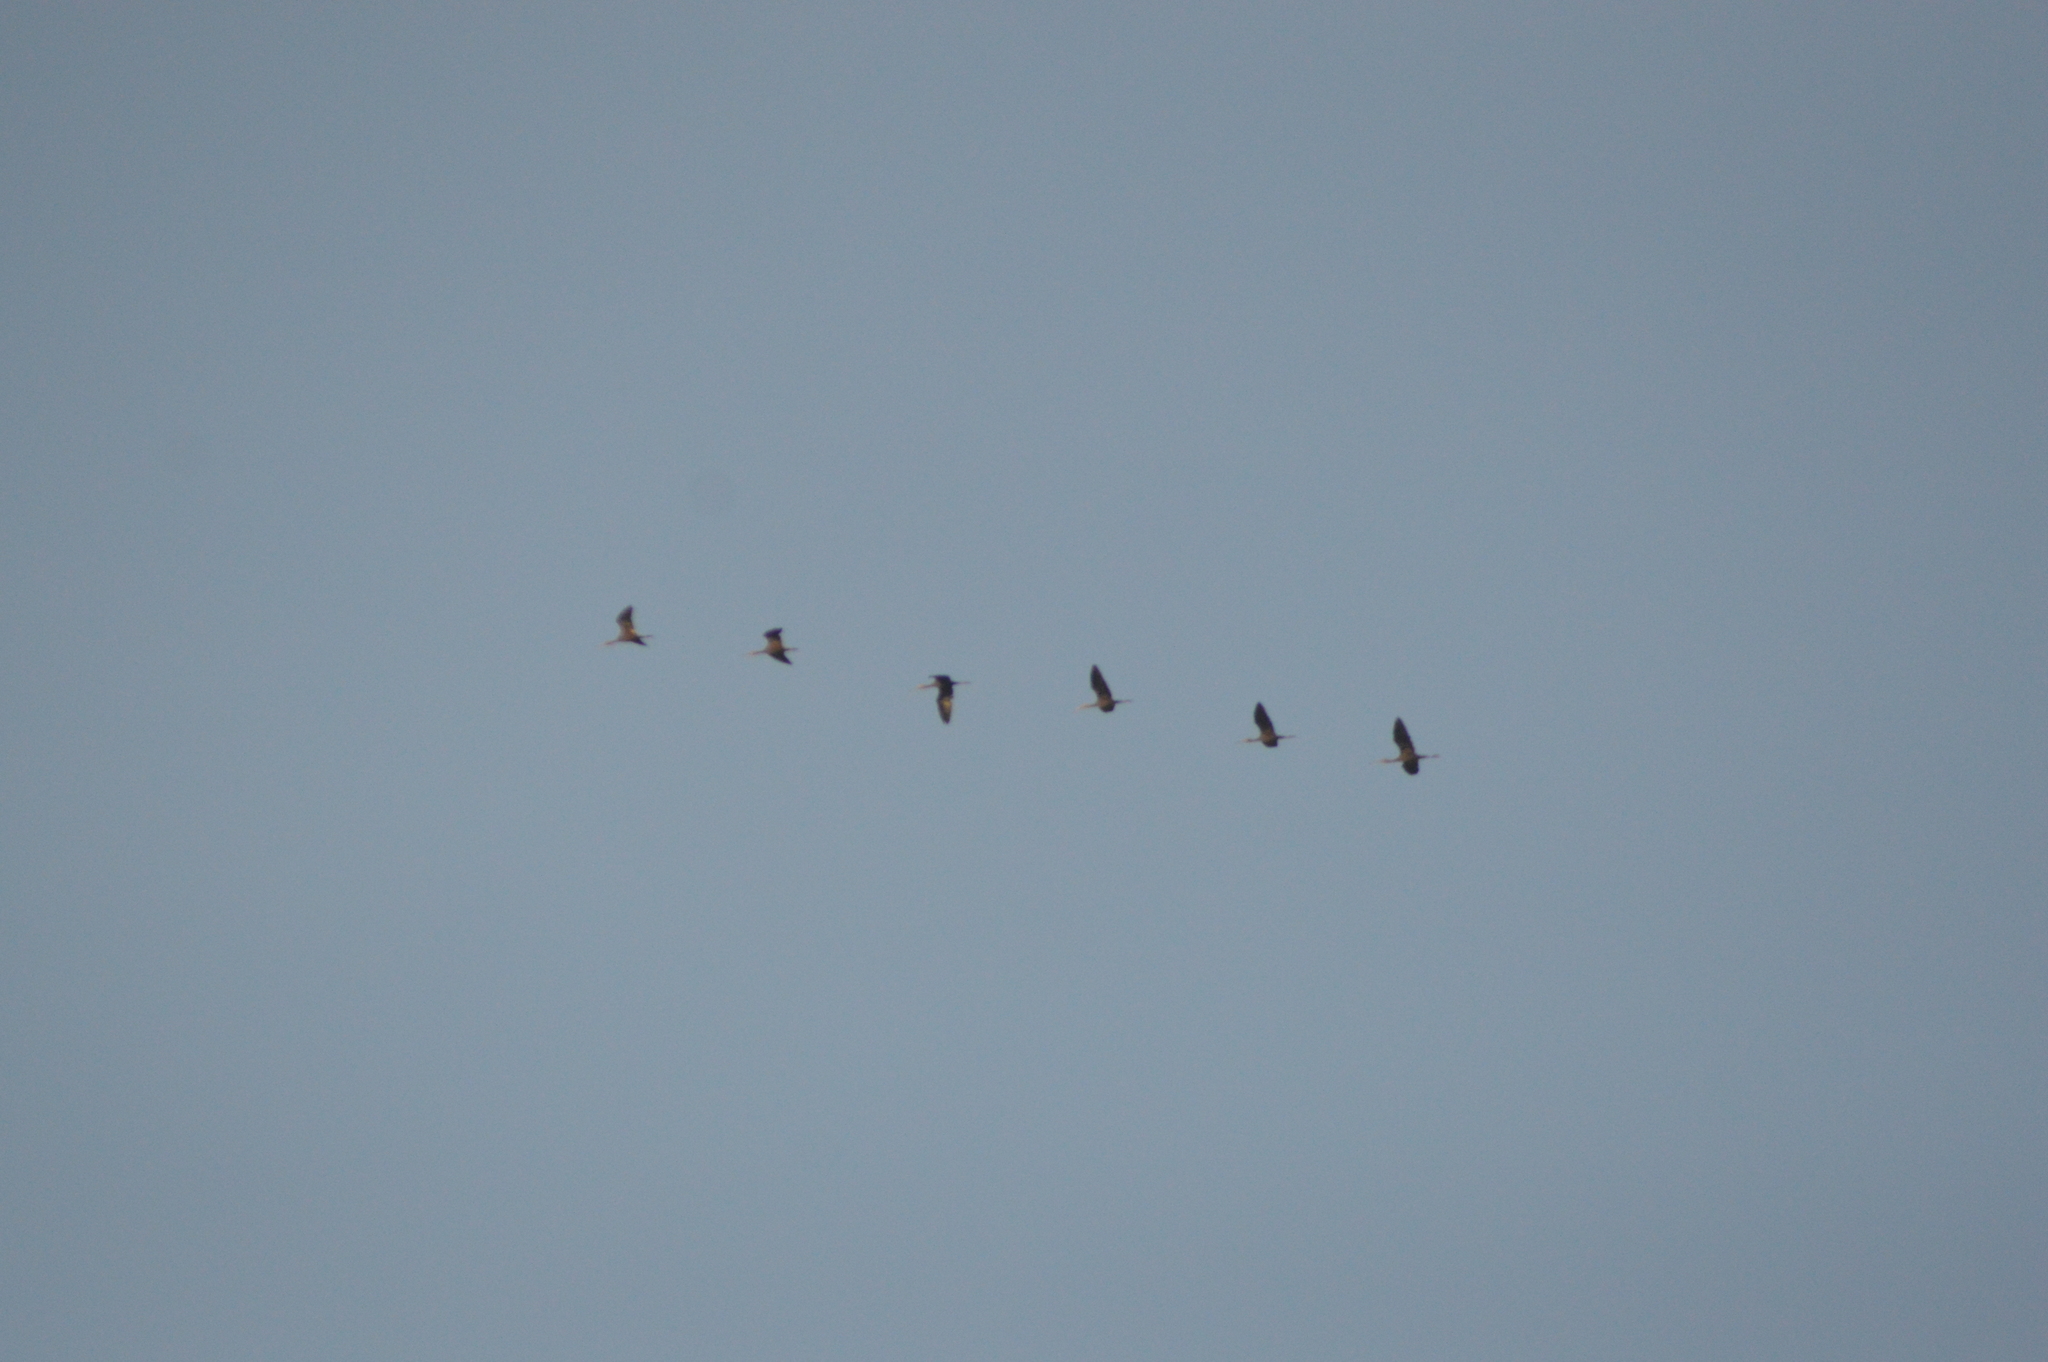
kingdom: Animalia
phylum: Chordata
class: Aves
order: Pelecaniformes
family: Threskiornithidae
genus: Plegadis
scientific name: Plegadis chihi
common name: White-faced ibis
